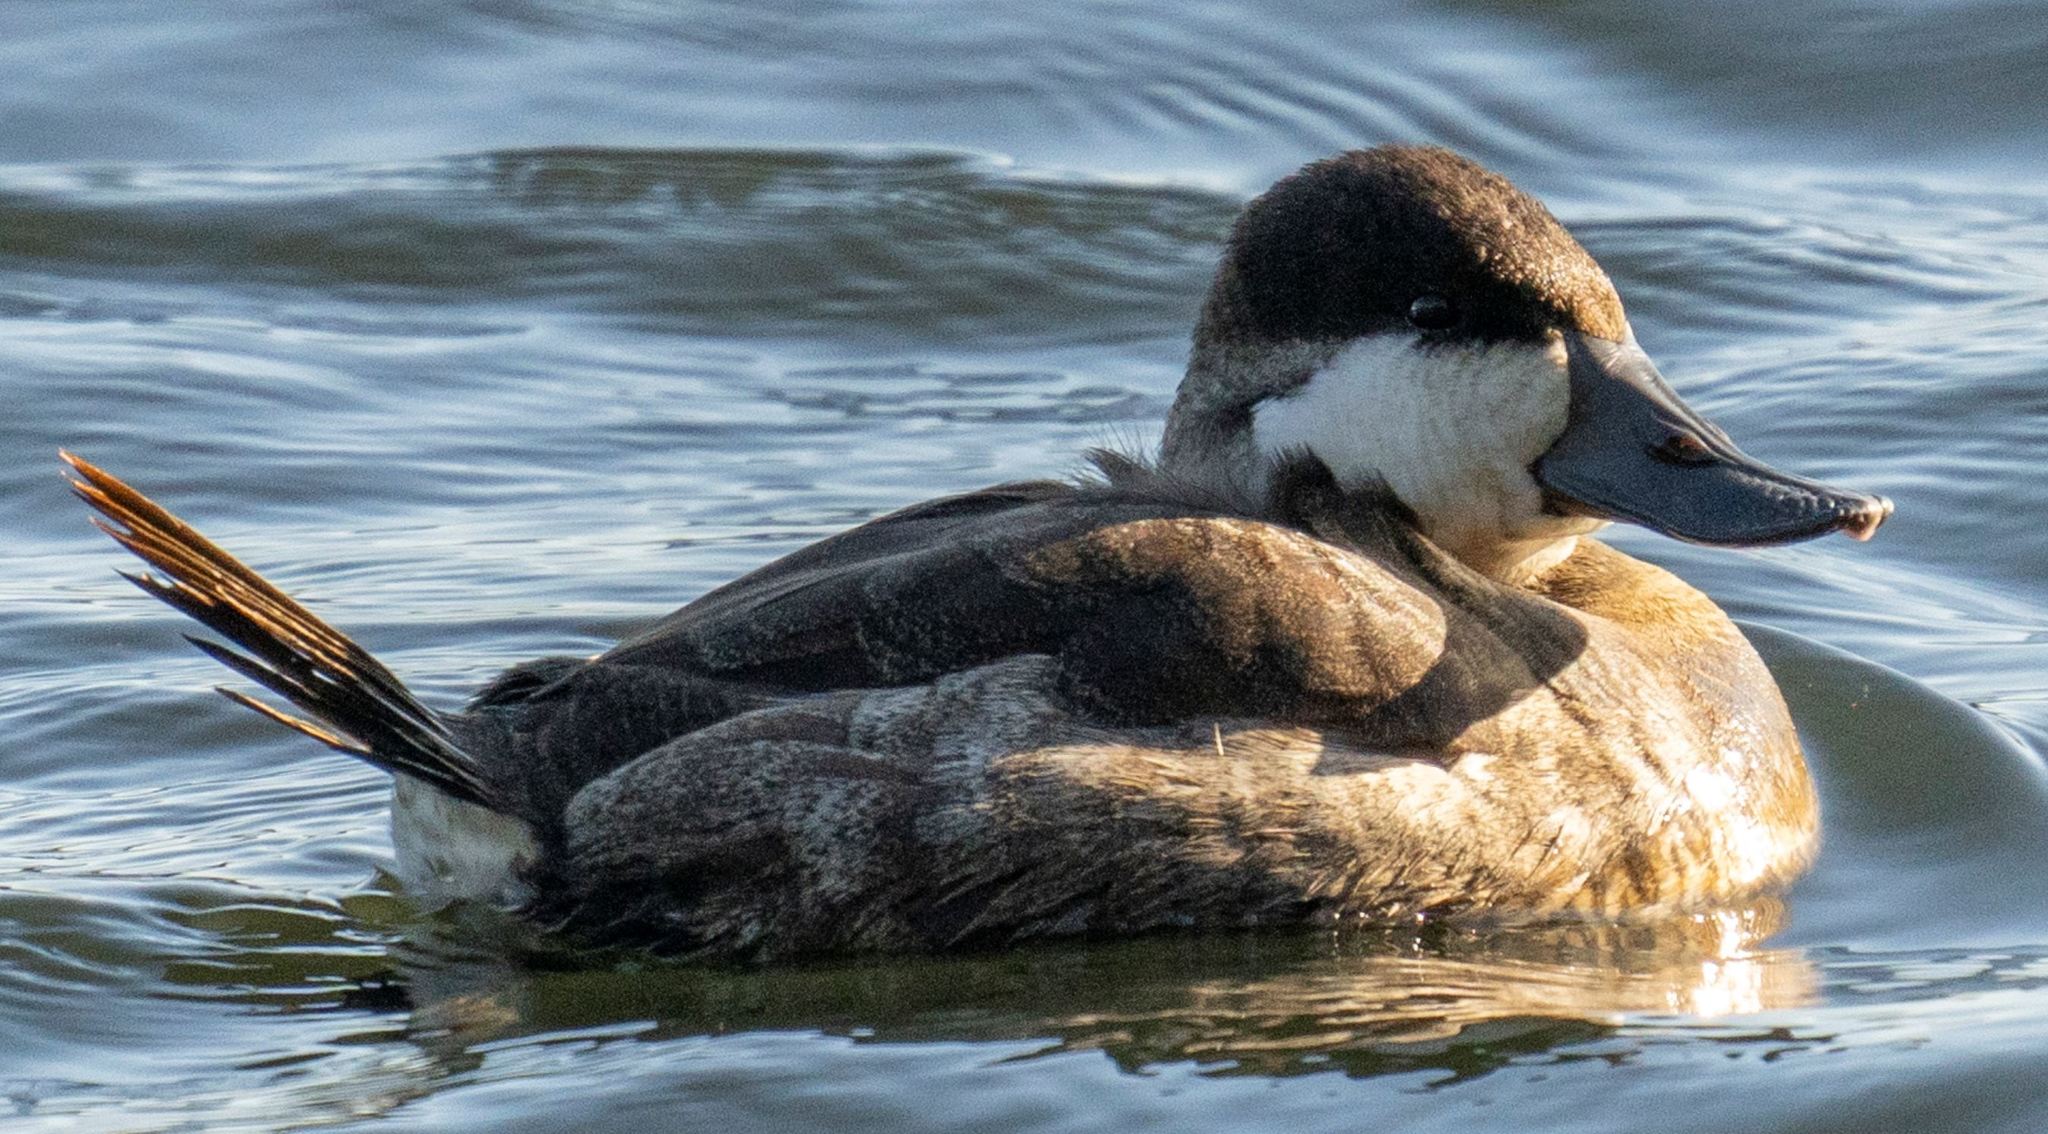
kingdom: Animalia
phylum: Chordata
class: Aves
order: Anseriformes
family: Anatidae
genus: Oxyura
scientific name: Oxyura jamaicensis
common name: Ruddy duck
